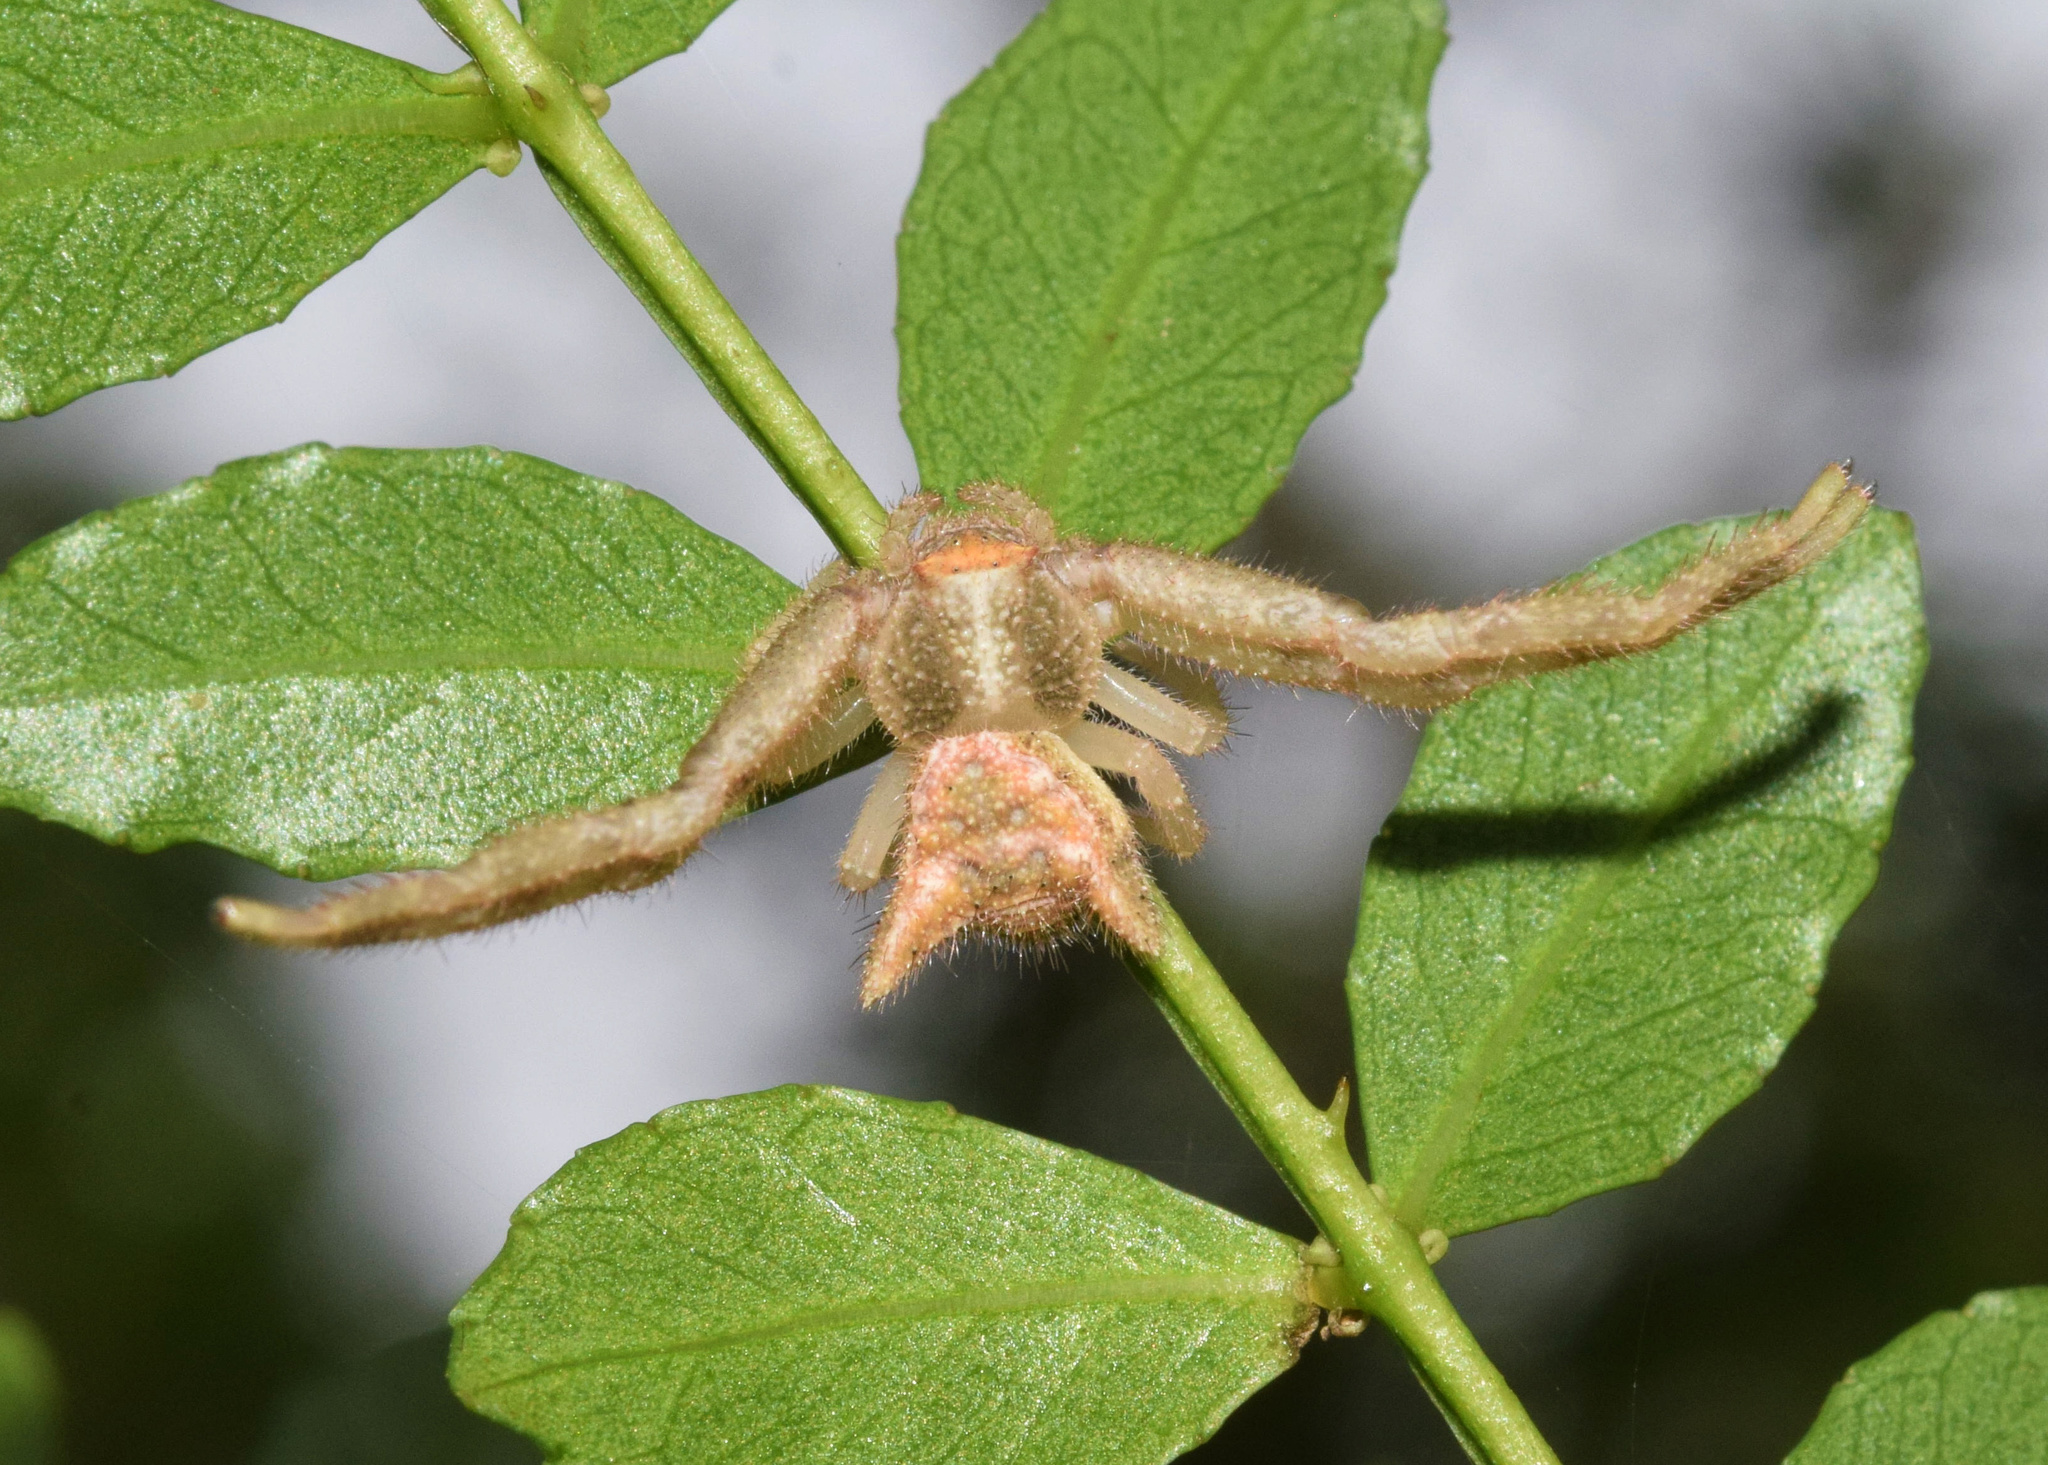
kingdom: Animalia
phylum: Arthropoda
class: Arachnida
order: Araneae
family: Thomisidae
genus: Thomisus
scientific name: Thomisus granulatus
